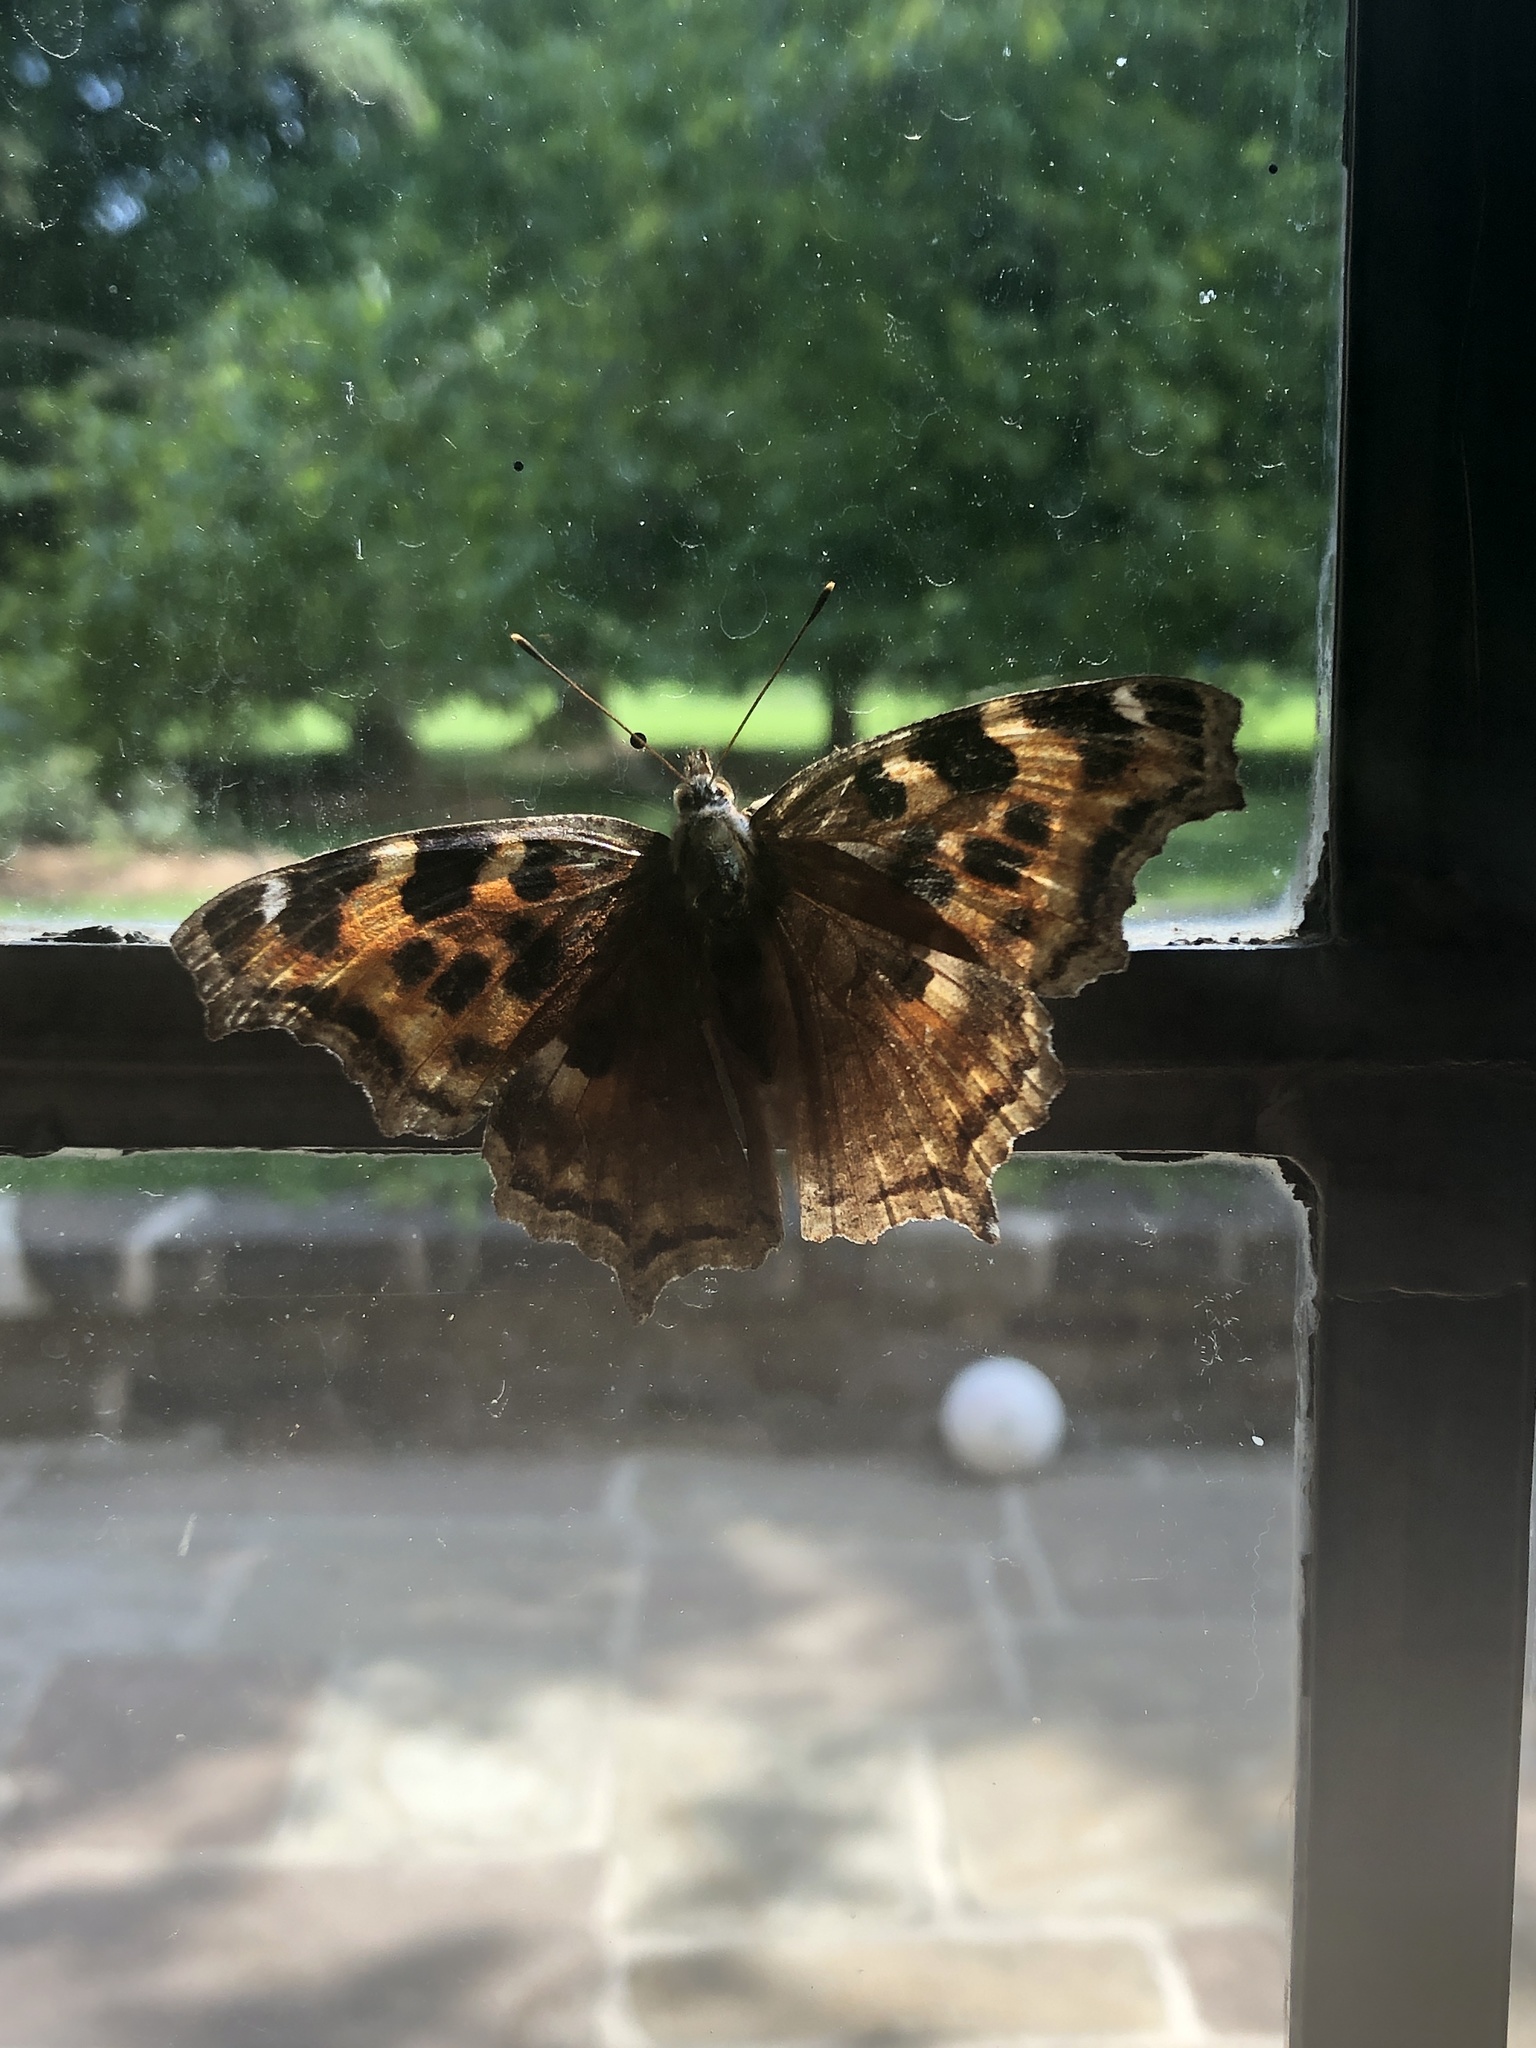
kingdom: Animalia
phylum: Arthropoda
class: Insecta
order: Lepidoptera
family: Nymphalidae
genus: Polygonia
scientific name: Polygonia vaualbum
